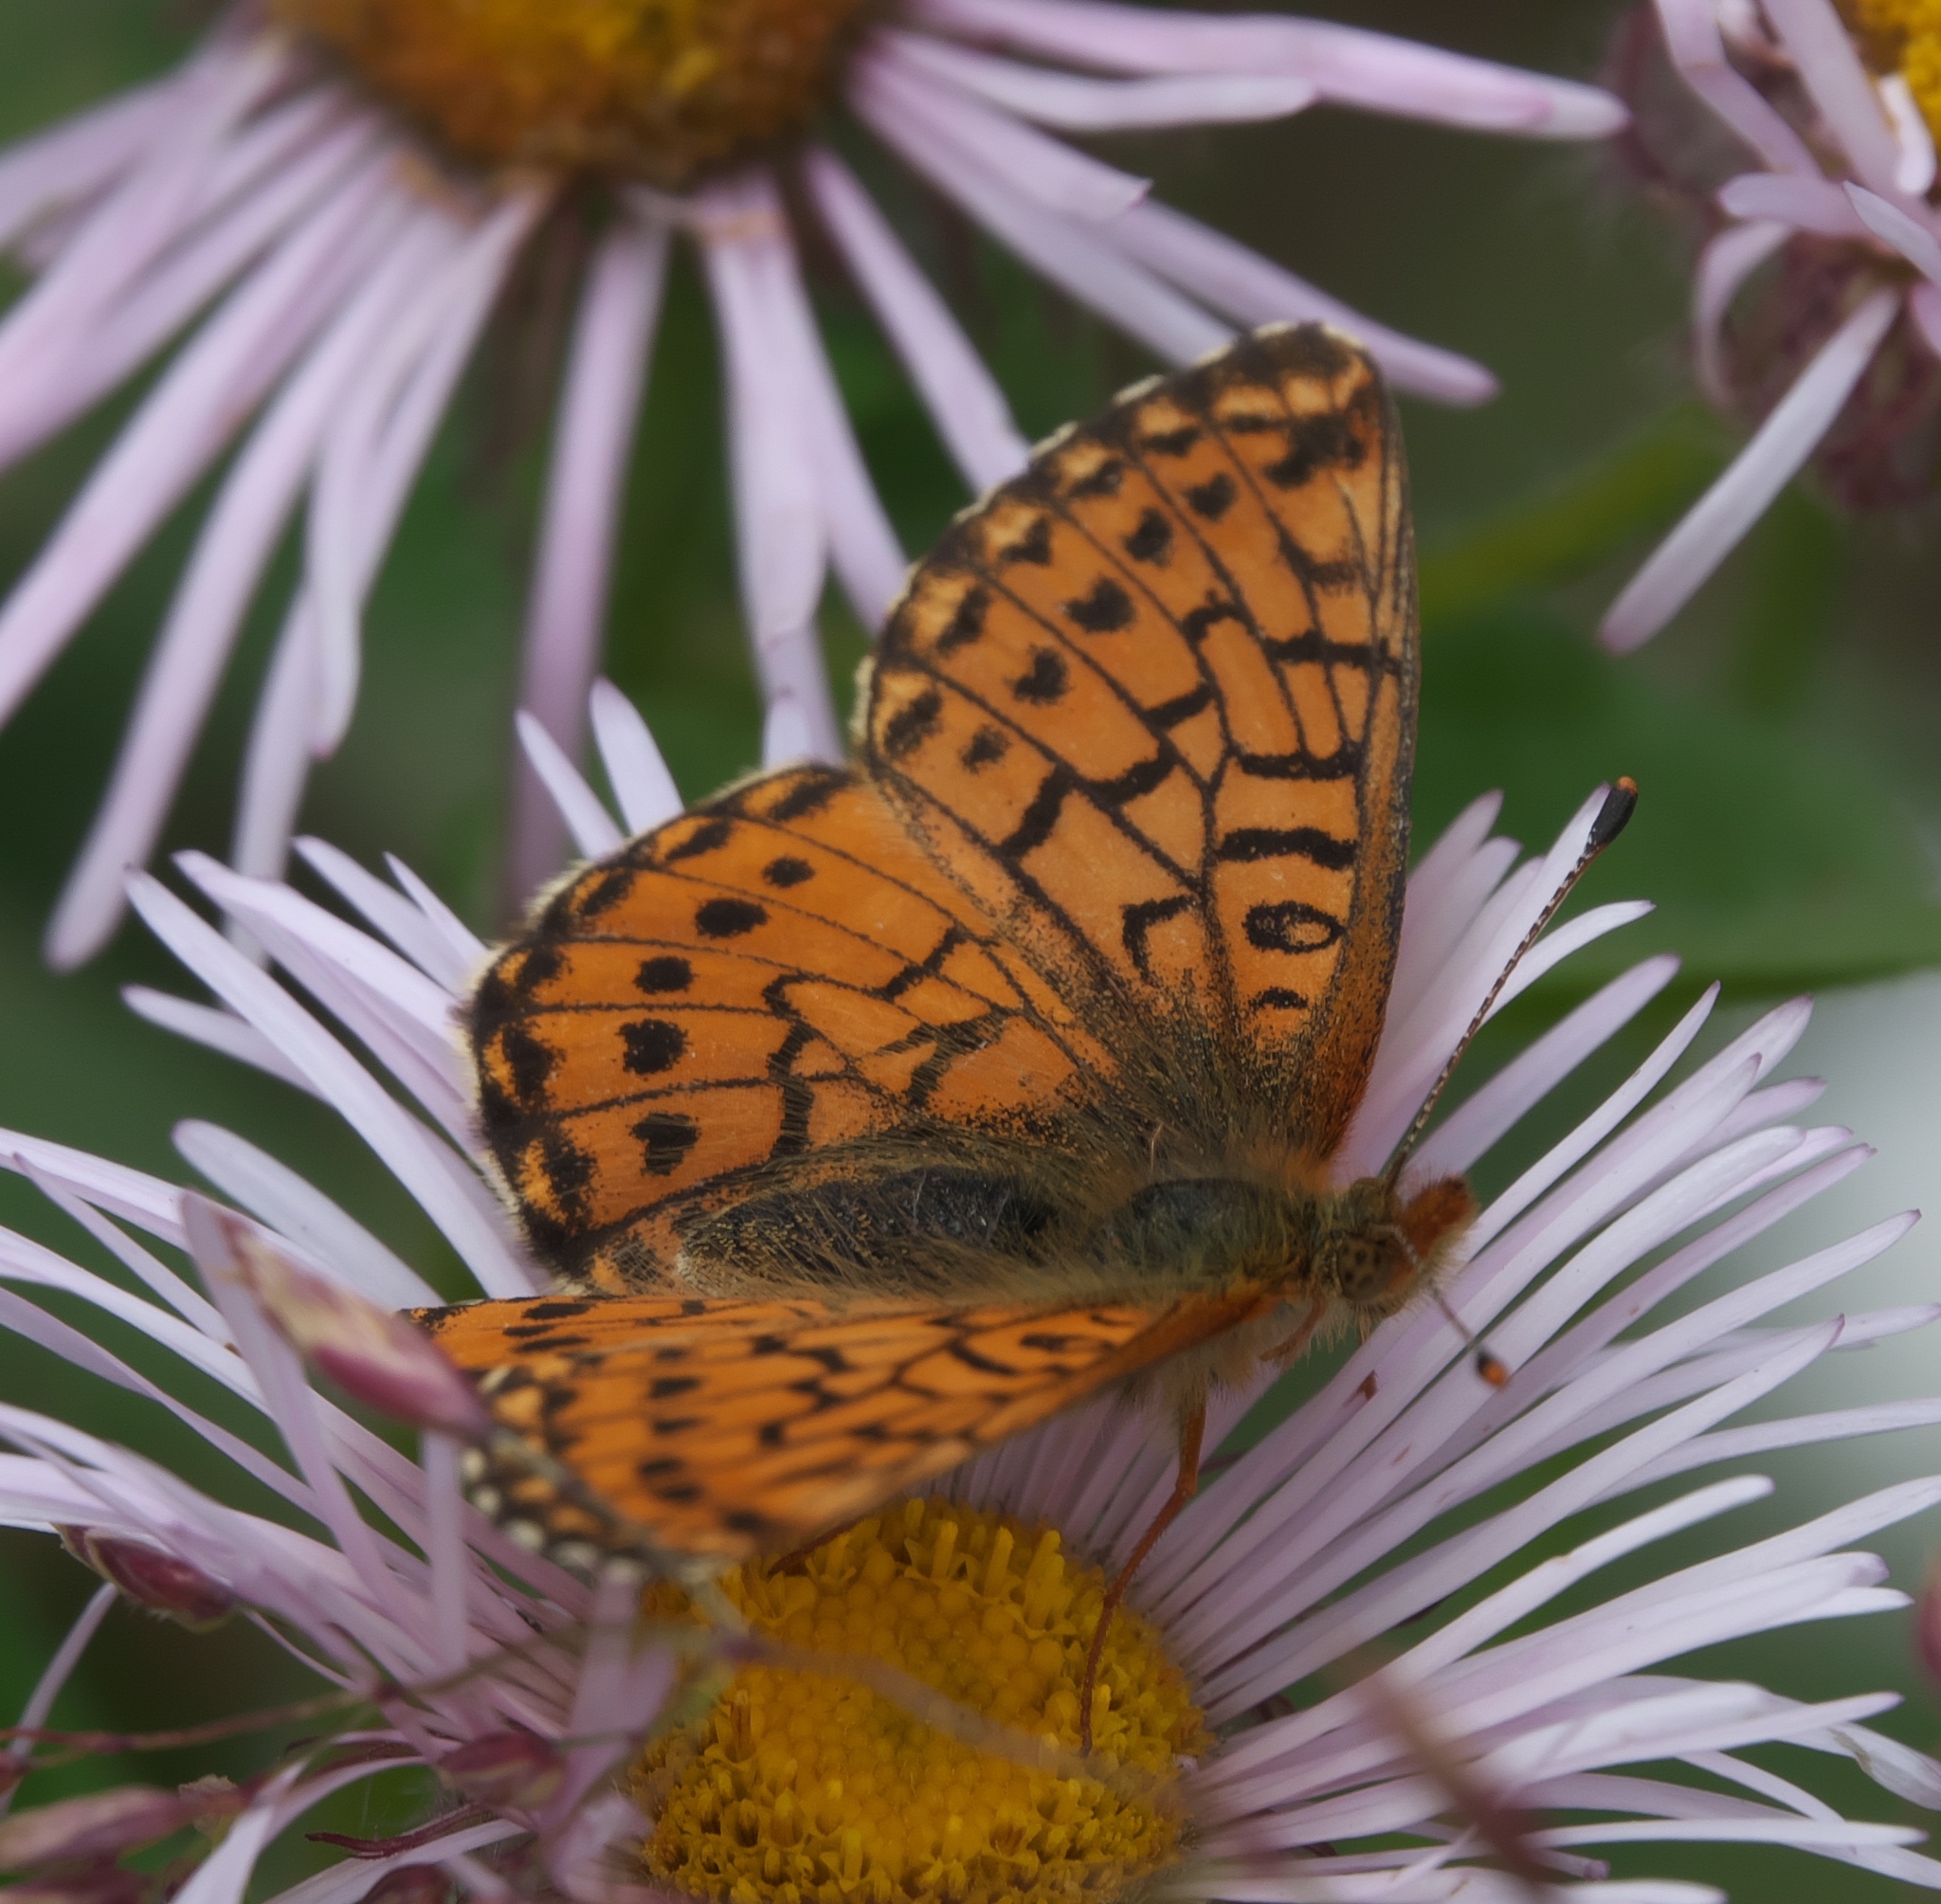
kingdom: Animalia
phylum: Arthropoda
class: Insecta
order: Lepidoptera
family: Nymphalidae
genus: Boloria
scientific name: Boloria chariclea
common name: Arctic fritillary
